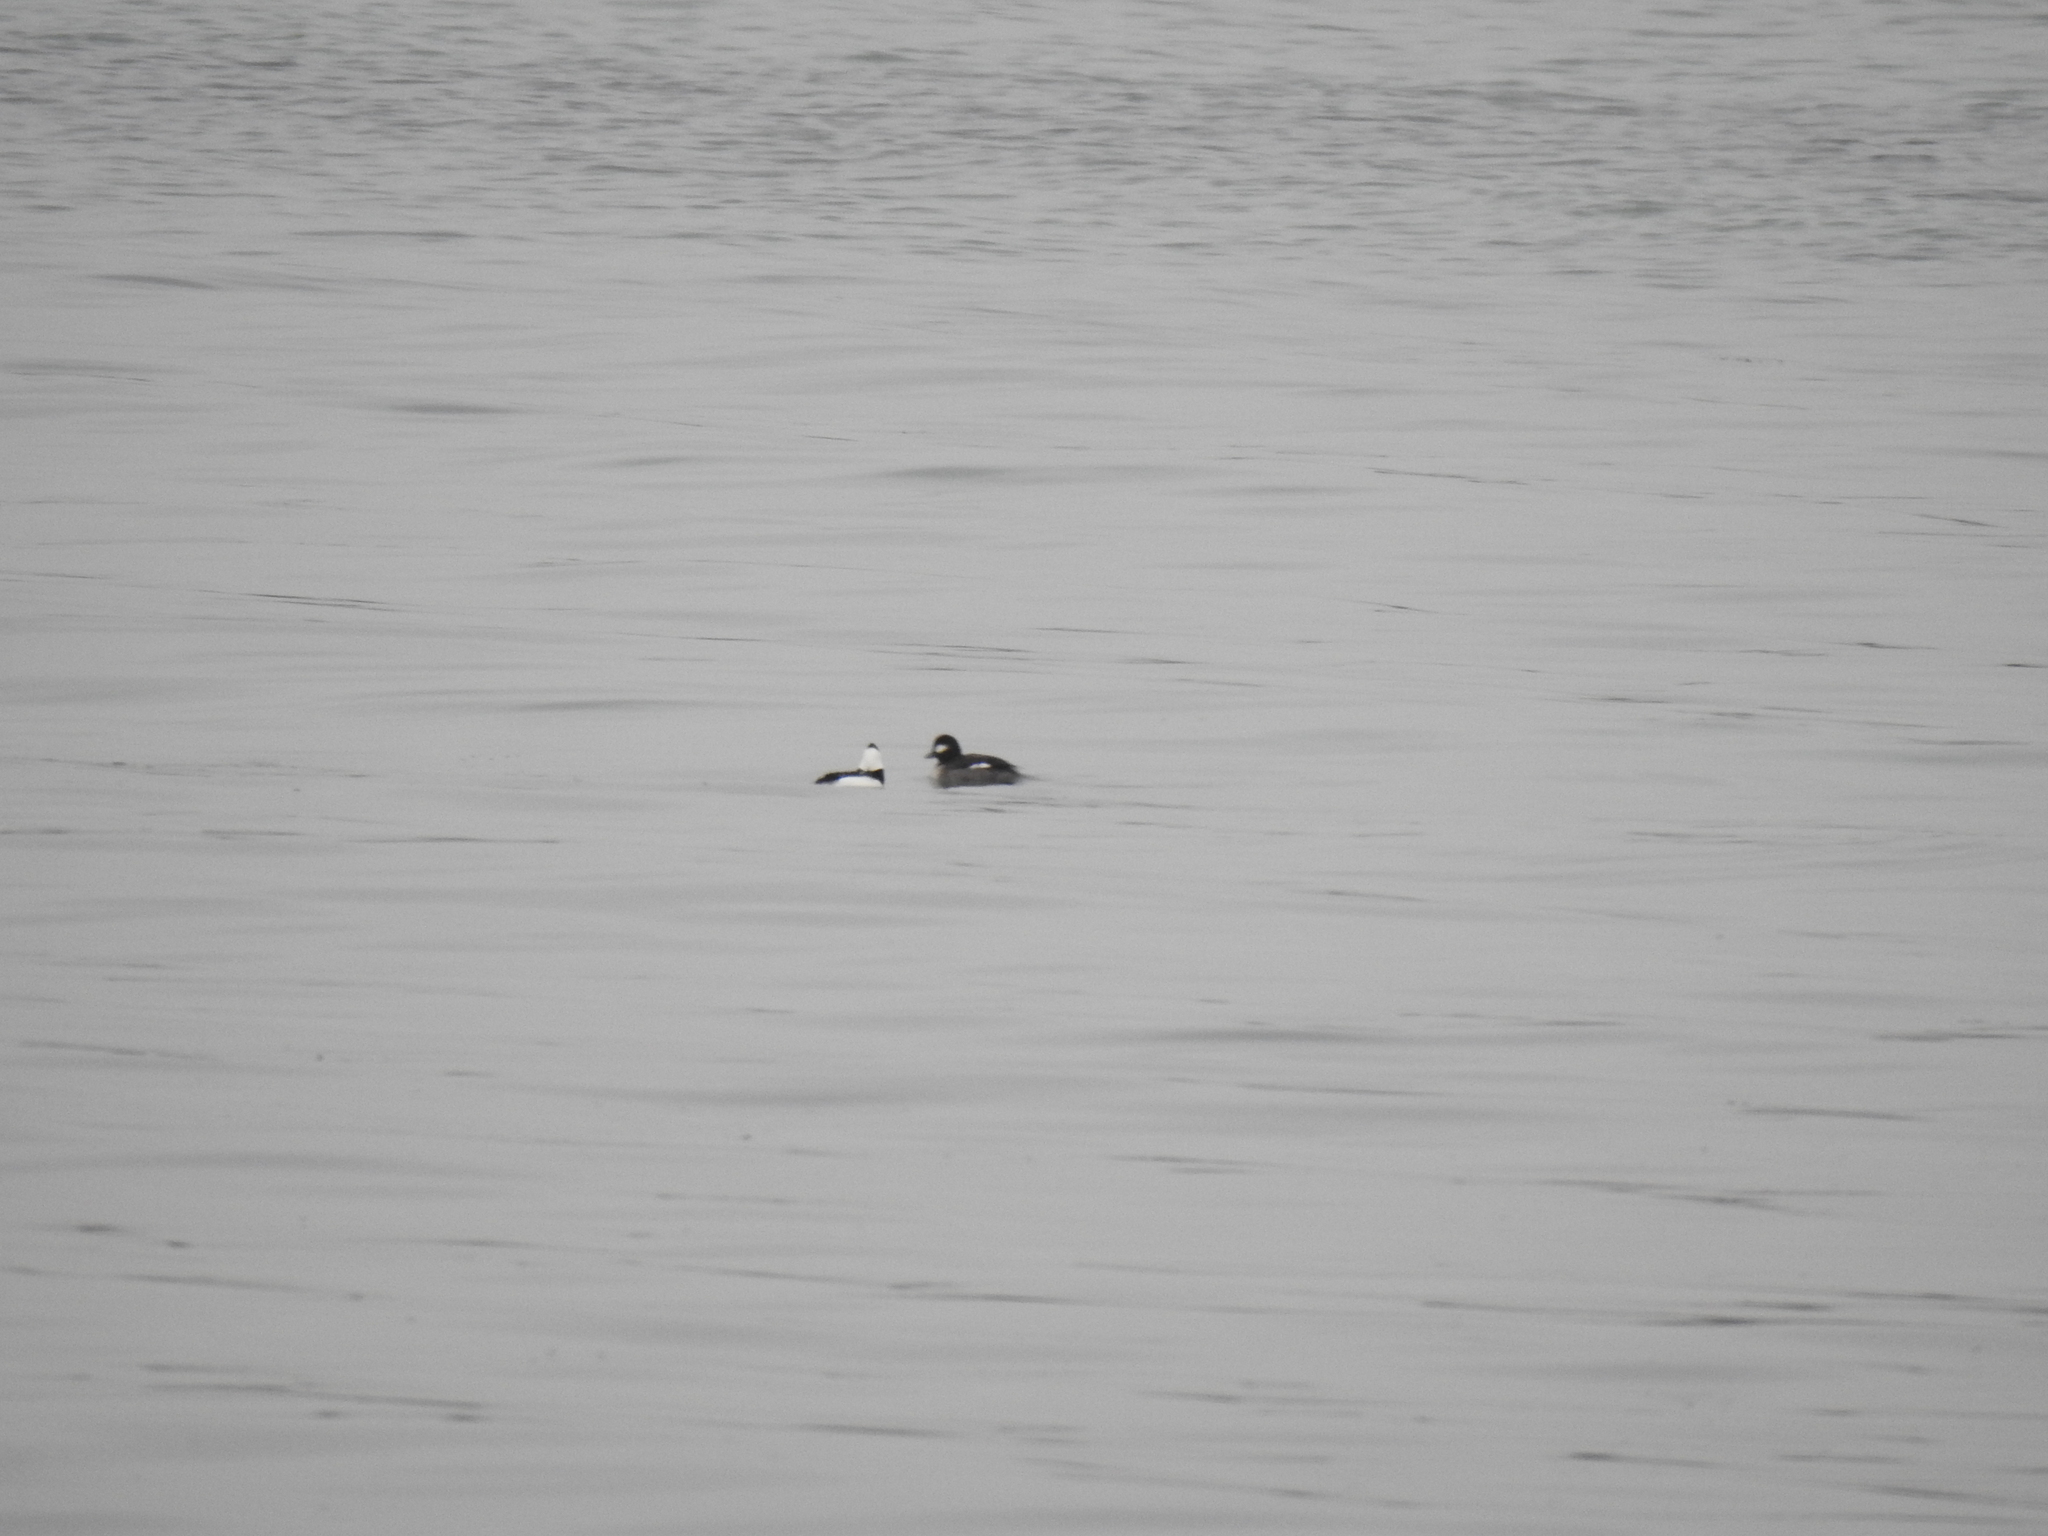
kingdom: Animalia
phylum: Chordata
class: Aves
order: Anseriformes
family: Anatidae
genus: Bucephala
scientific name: Bucephala albeola
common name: Bufflehead
